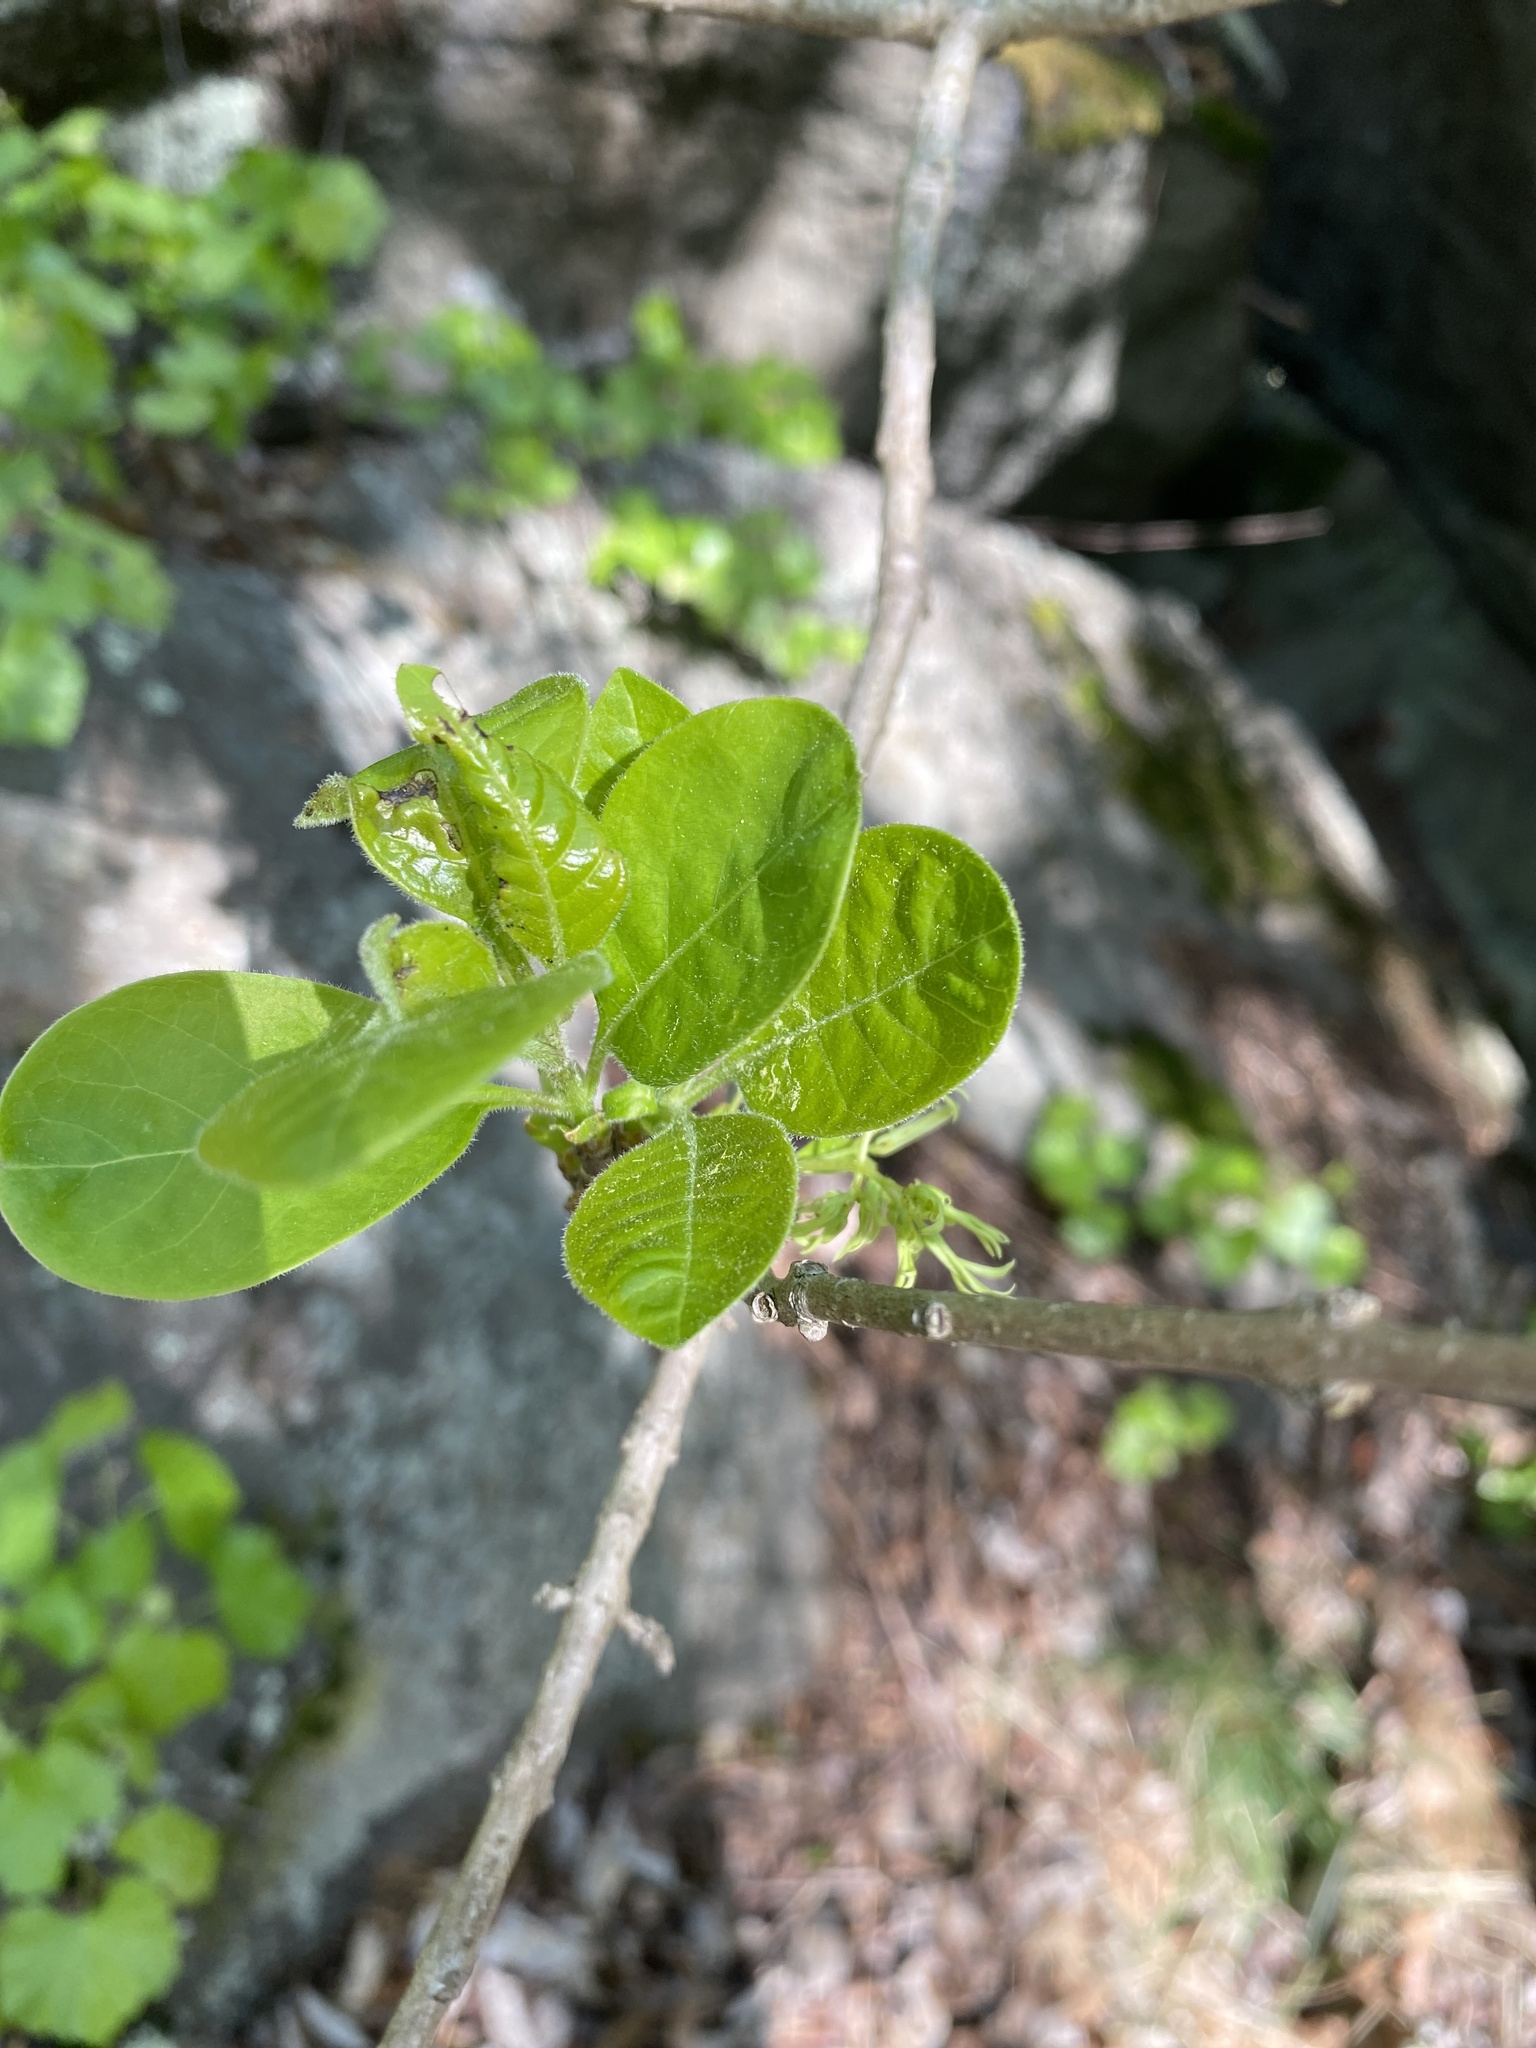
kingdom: Plantae
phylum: Tracheophyta
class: Magnoliopsida
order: Lamiales
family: Oleaceae
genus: Chionanthus
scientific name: Chionanthus virginicus
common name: American fringetree
